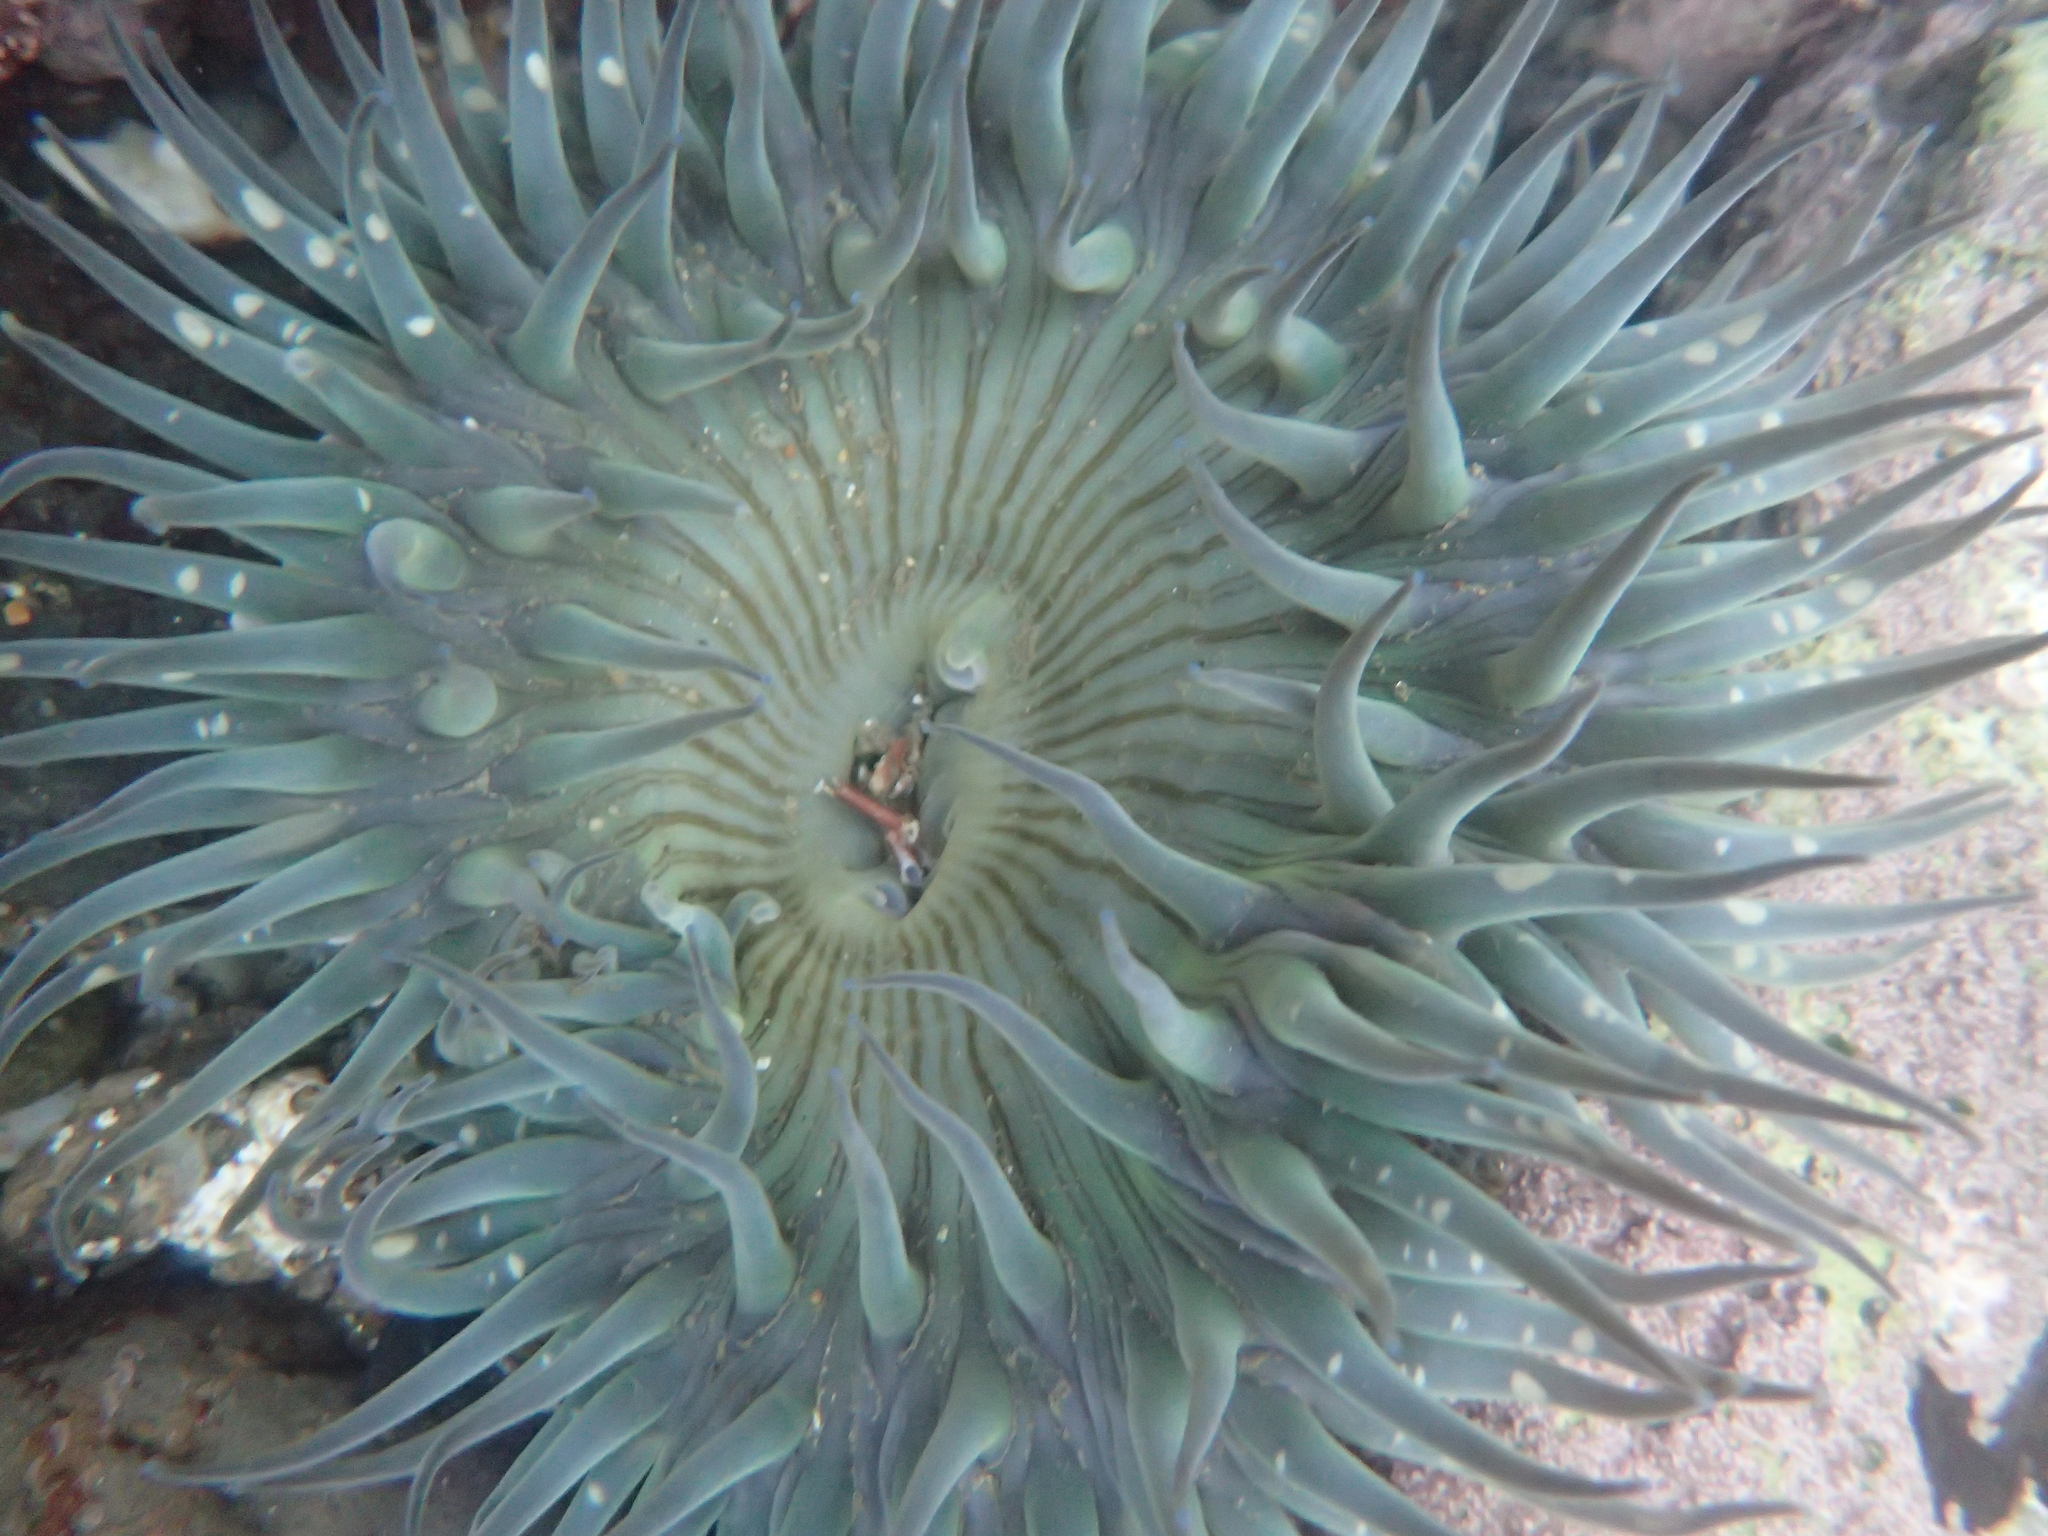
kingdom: Animalia
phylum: Cnidaria
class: Anthozoa
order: Actiniaria
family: Actiniidae
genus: Anthopleura
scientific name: Anthopleura sola
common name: Sun anemone
